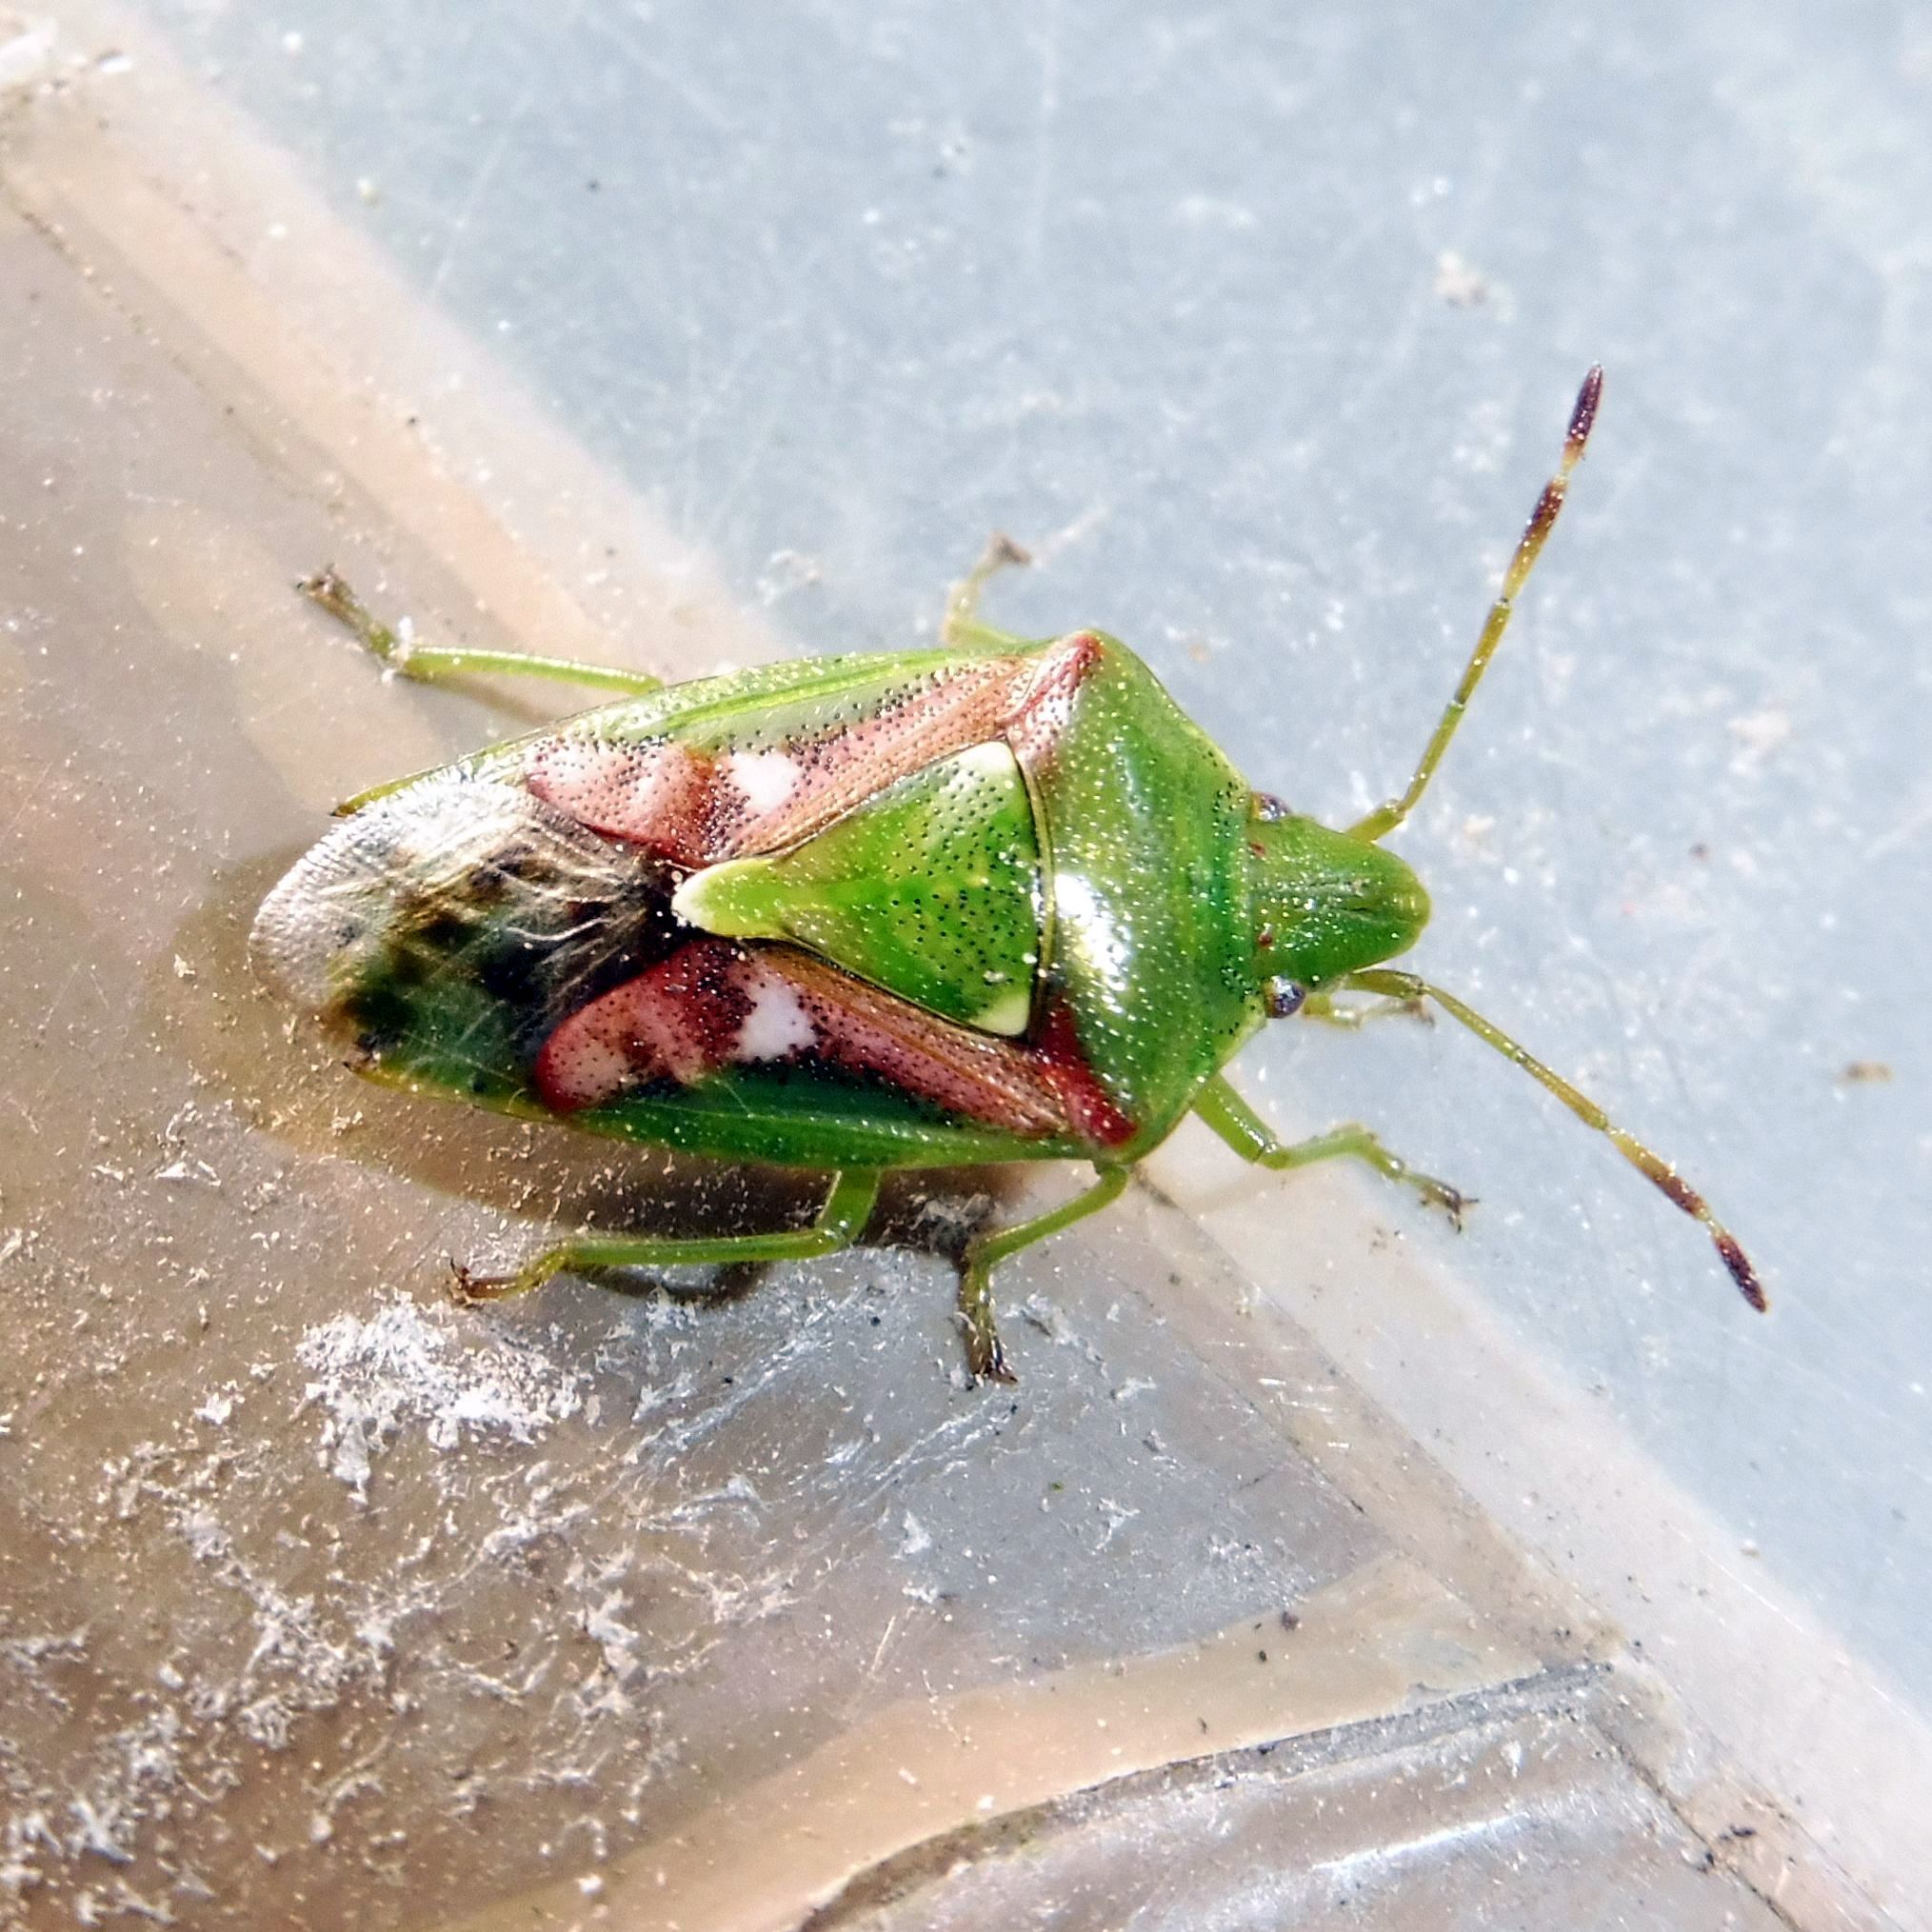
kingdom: Animalia
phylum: Arthropoda
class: Insecta
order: Hemiptera
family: Acanthosomatidae
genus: Cyphostethus
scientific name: Cyphostethus tristriatus
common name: Juniper shieldbug
